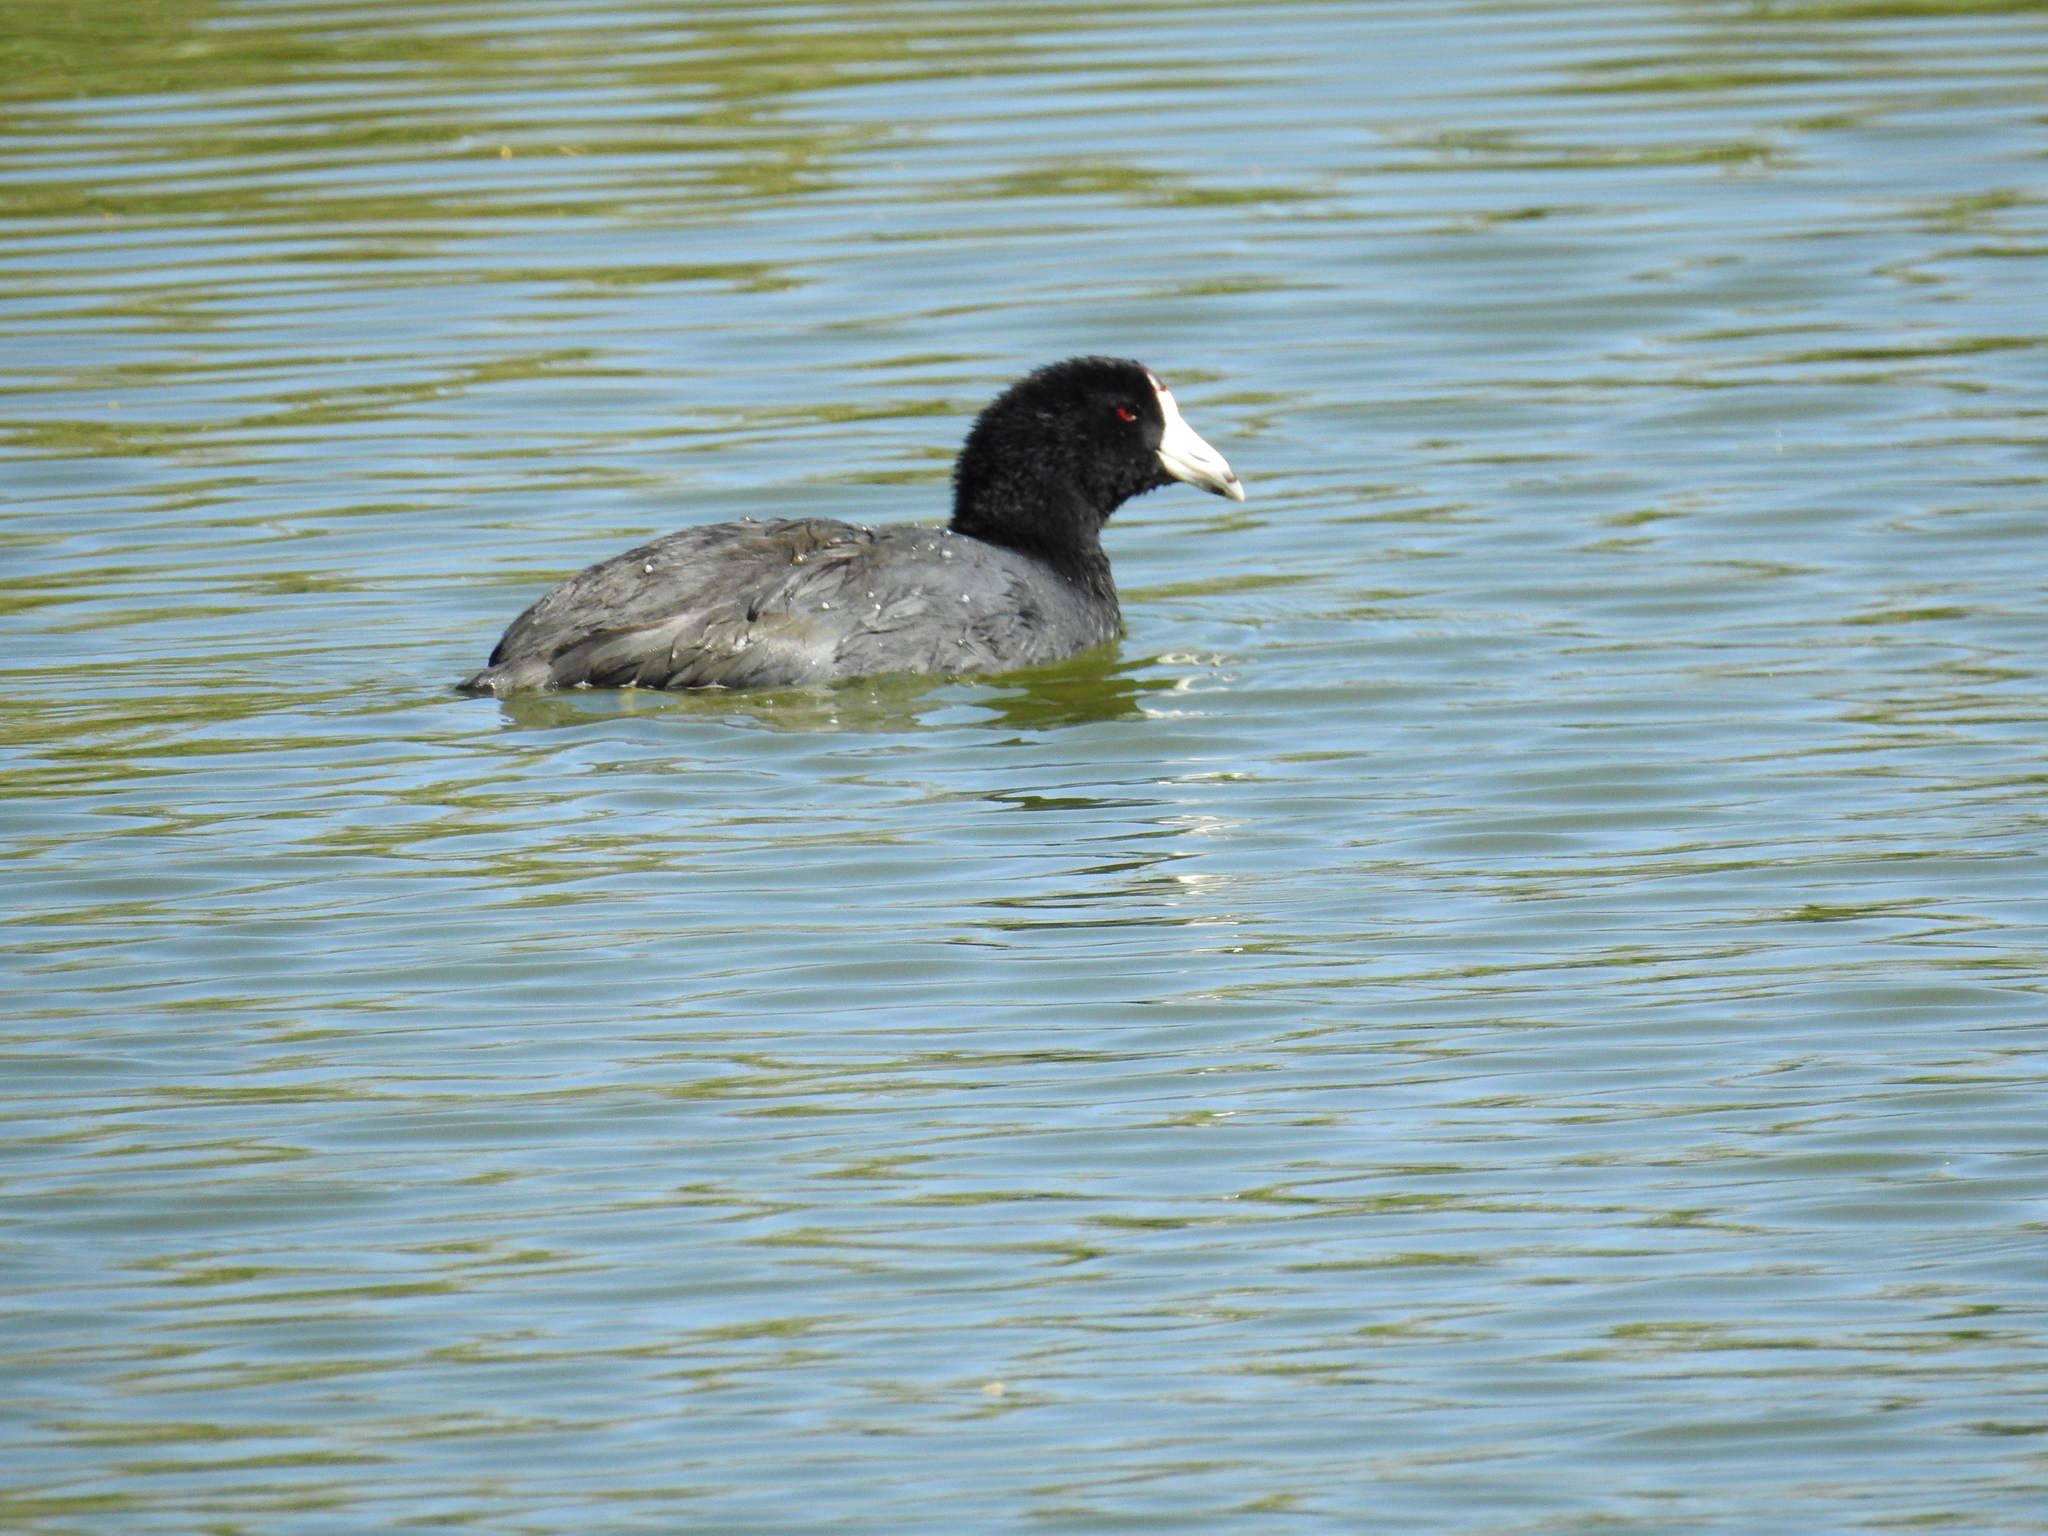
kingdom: Animalia
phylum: Chordata
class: Aves
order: Gruiformes
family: Rallidae
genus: Fulica
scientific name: Fulica americana
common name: American coot
